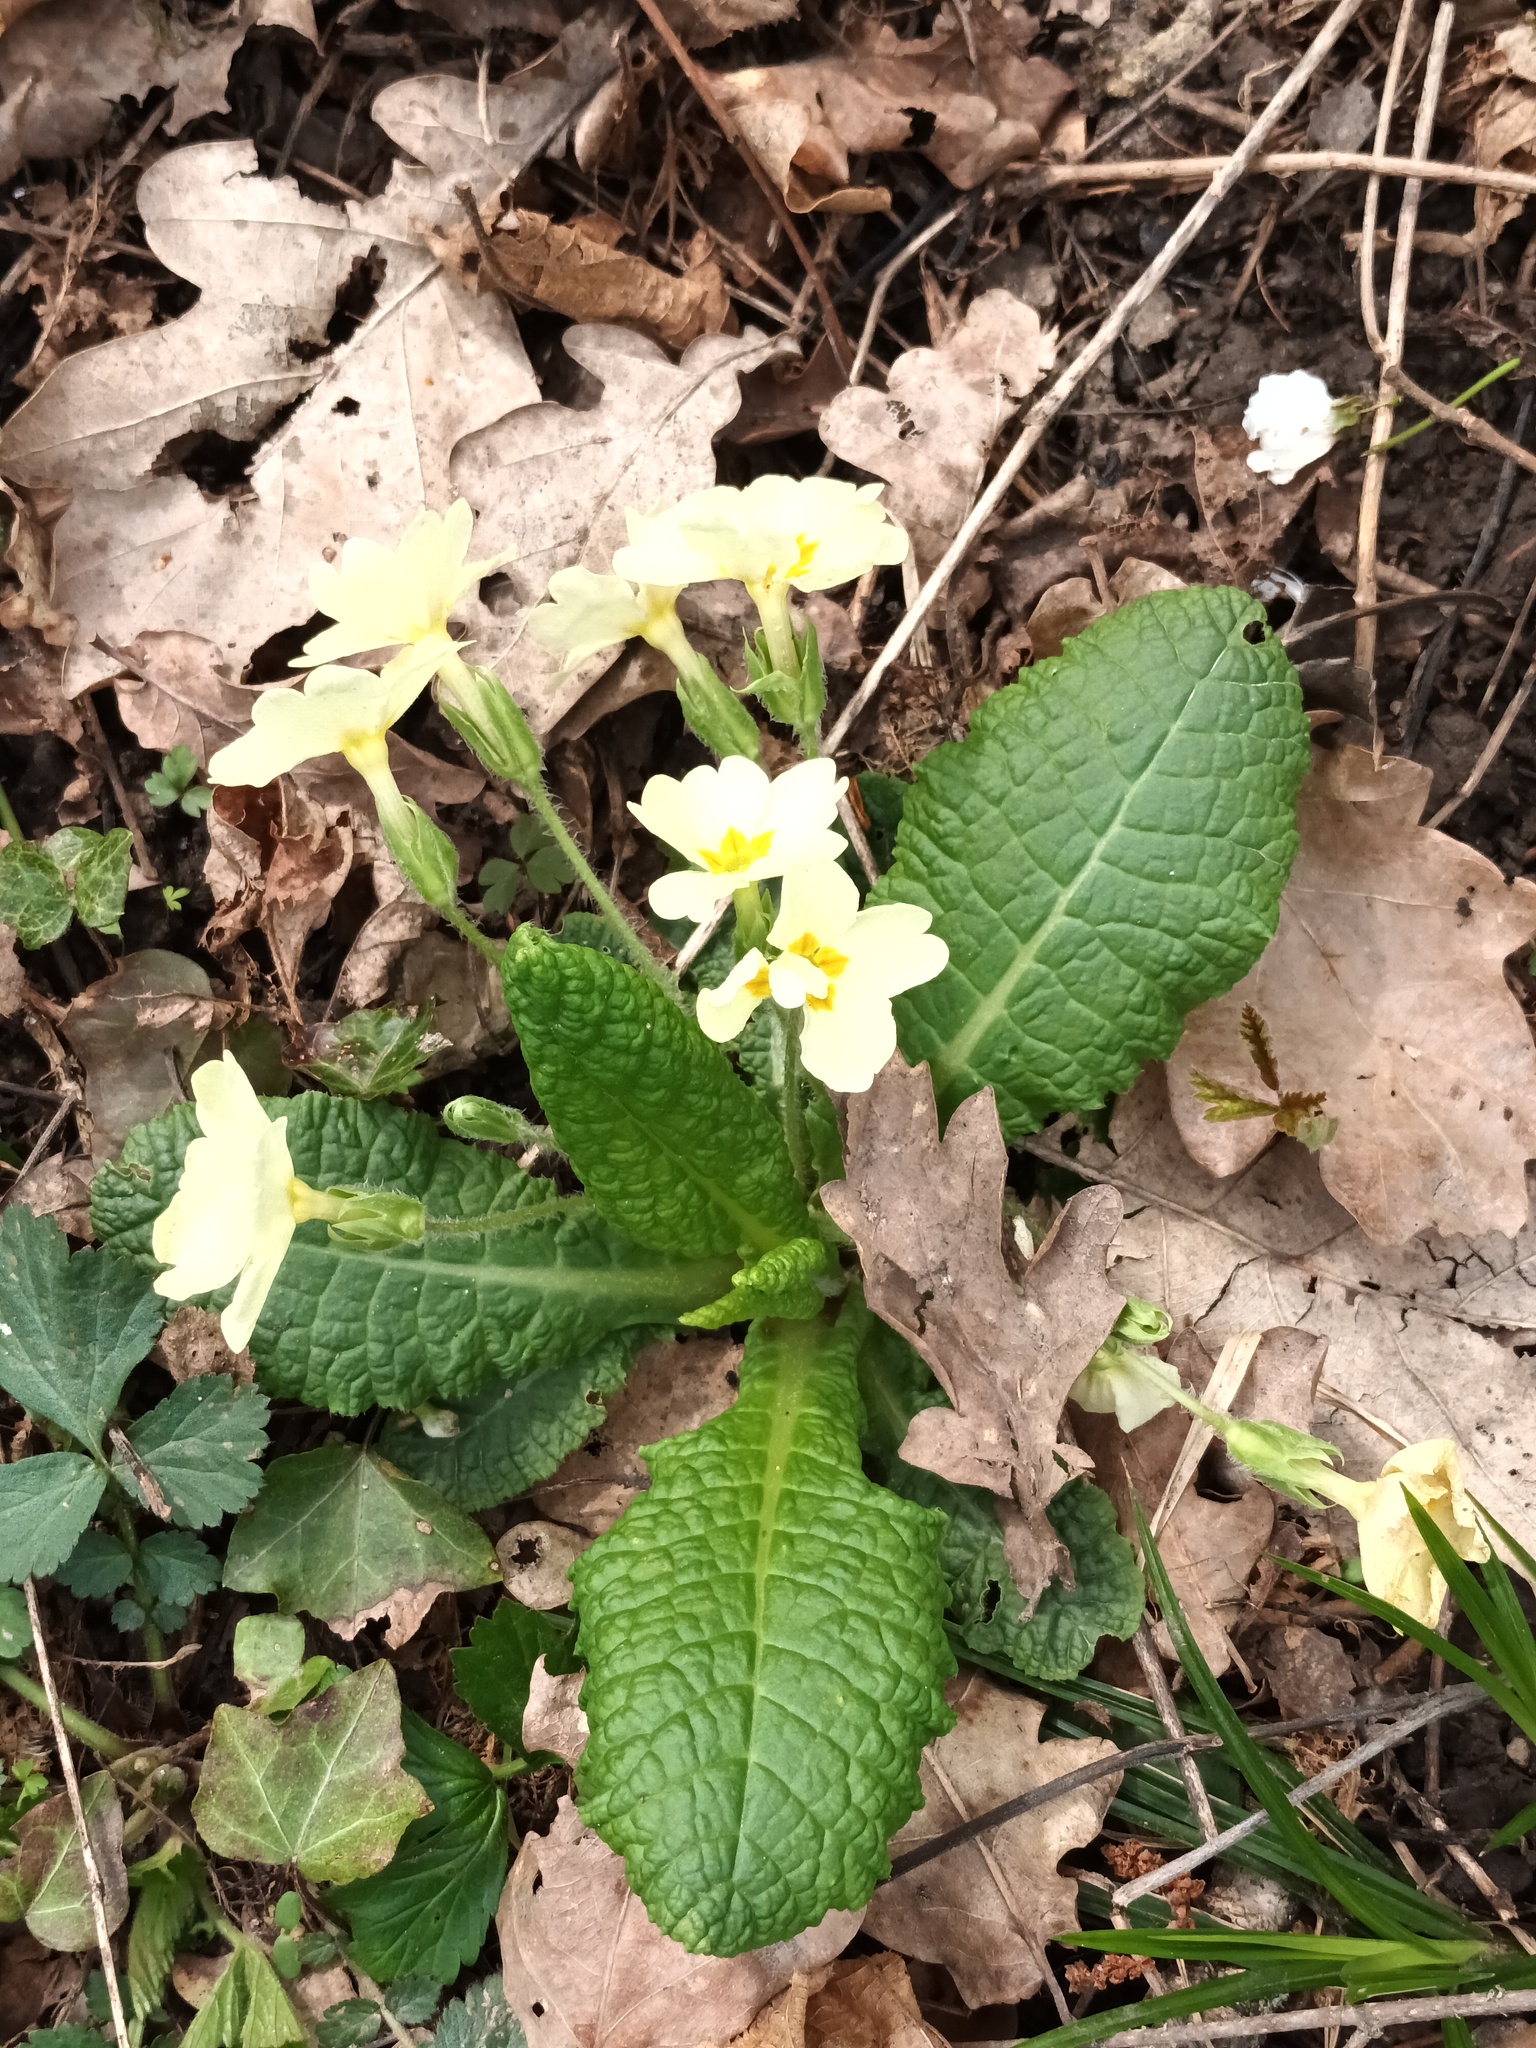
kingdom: Plantae
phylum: Tracheophyta
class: Magnoliopsida
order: Ericales
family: Primulaceae
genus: Primula
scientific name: Primula vulgaris
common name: Primrose
